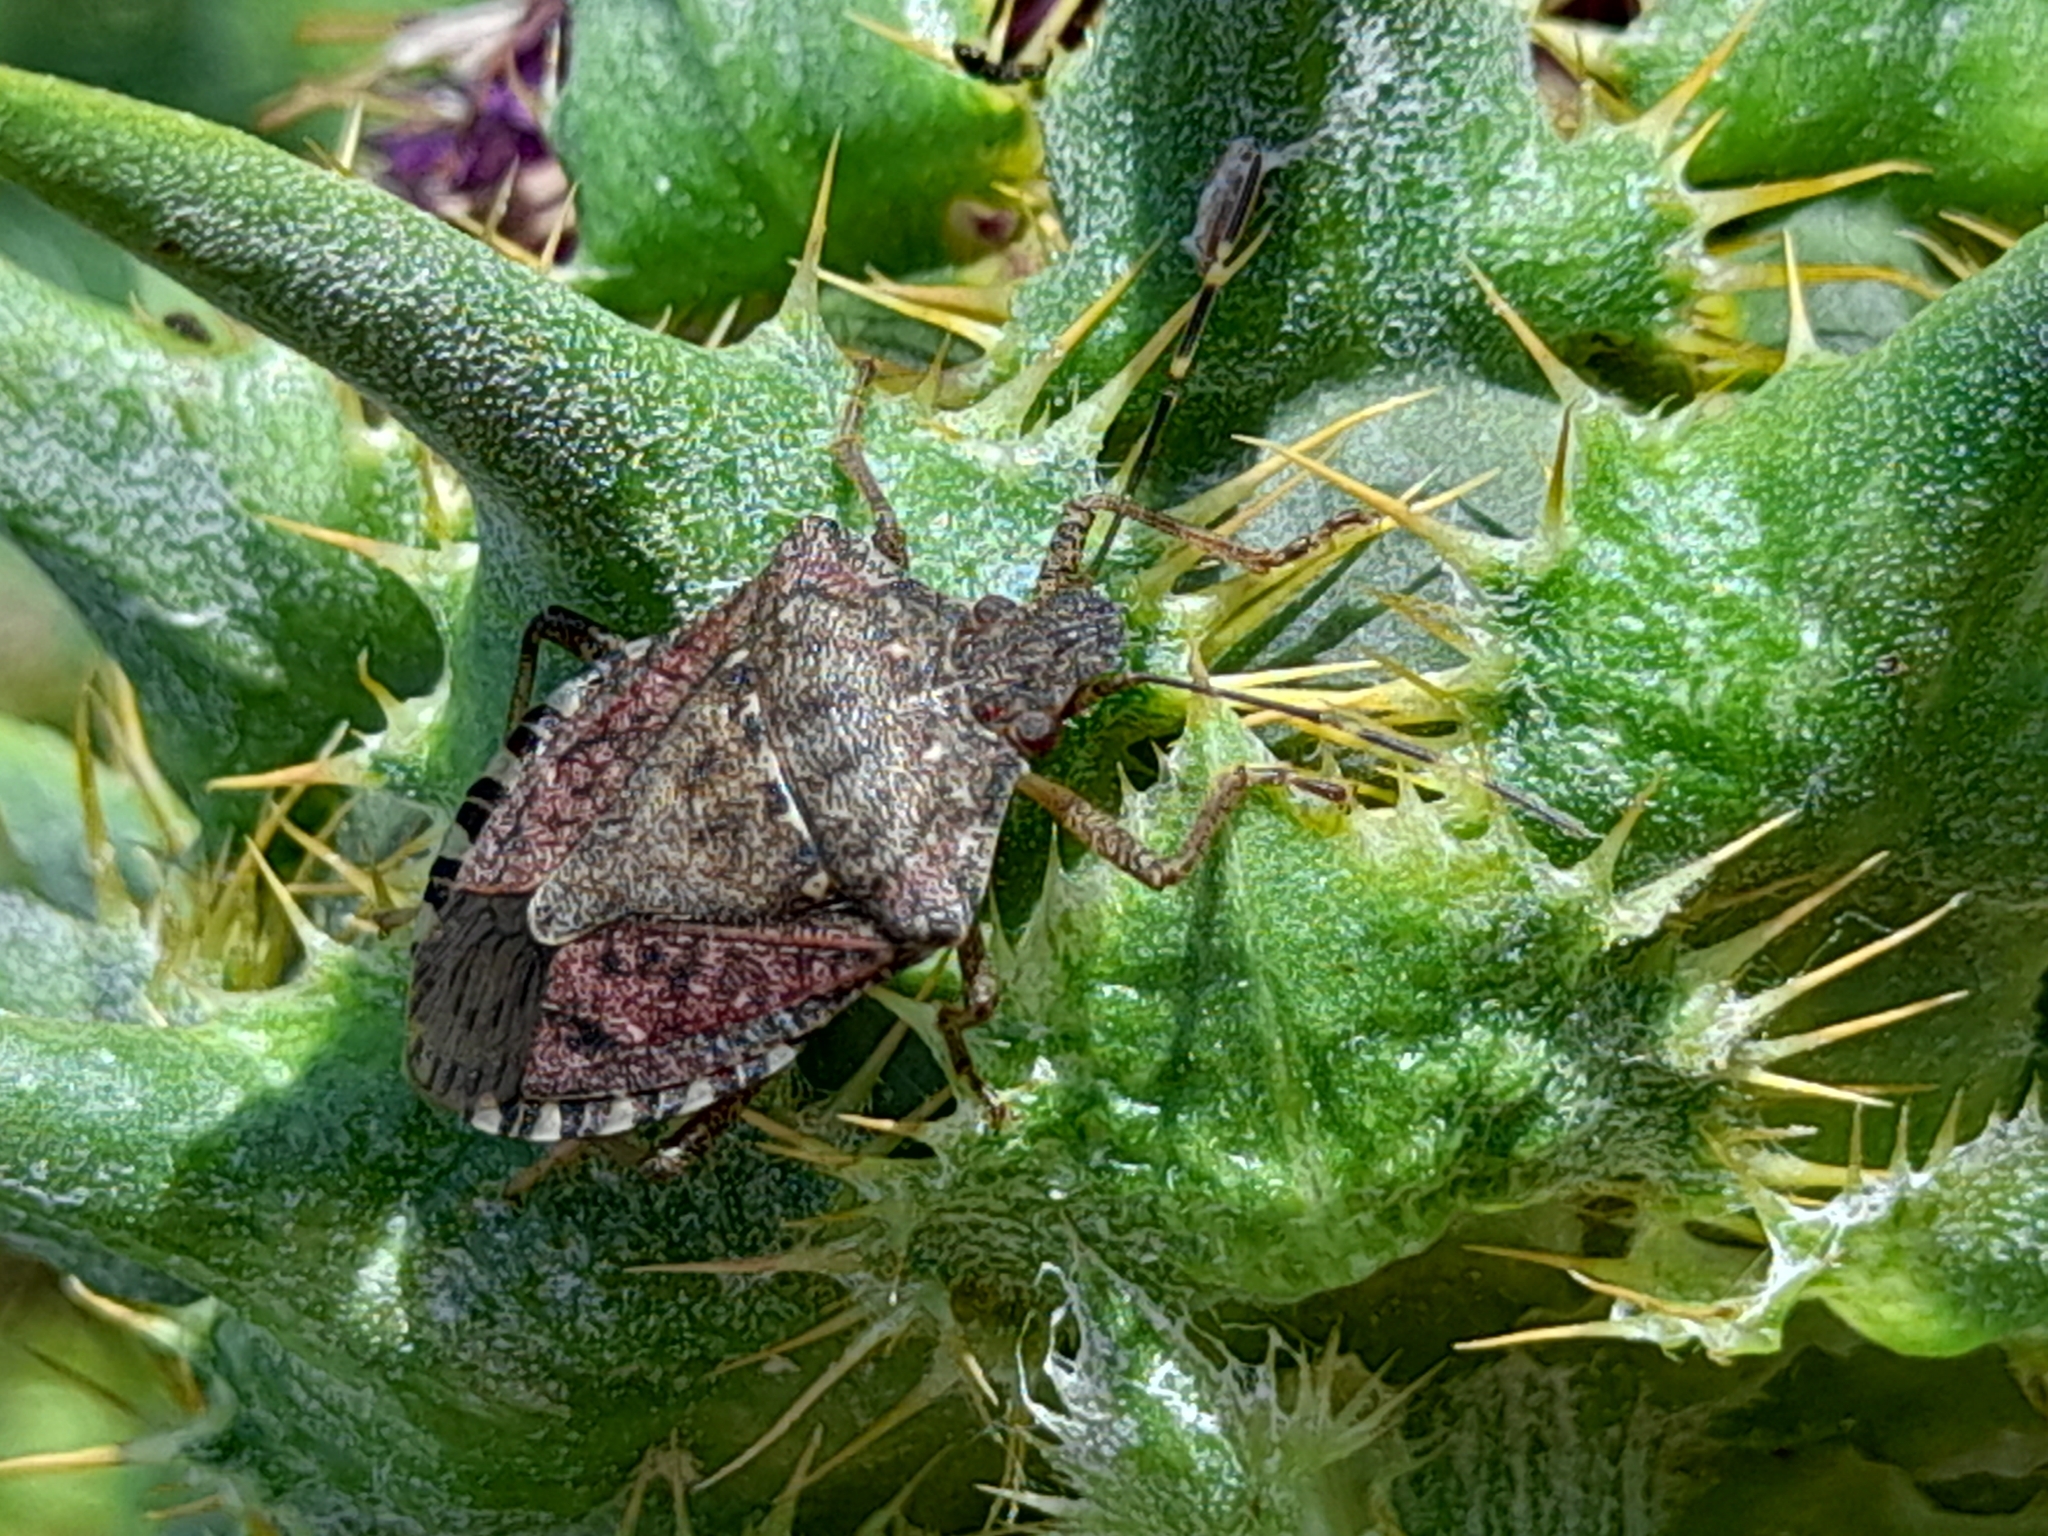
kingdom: Animalia
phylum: Arthropoda
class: Insecta
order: Hemiptera
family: Pentatomidae
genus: Halyomorpha
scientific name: Halyomorpha halys
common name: Brown marmorated stink bug
